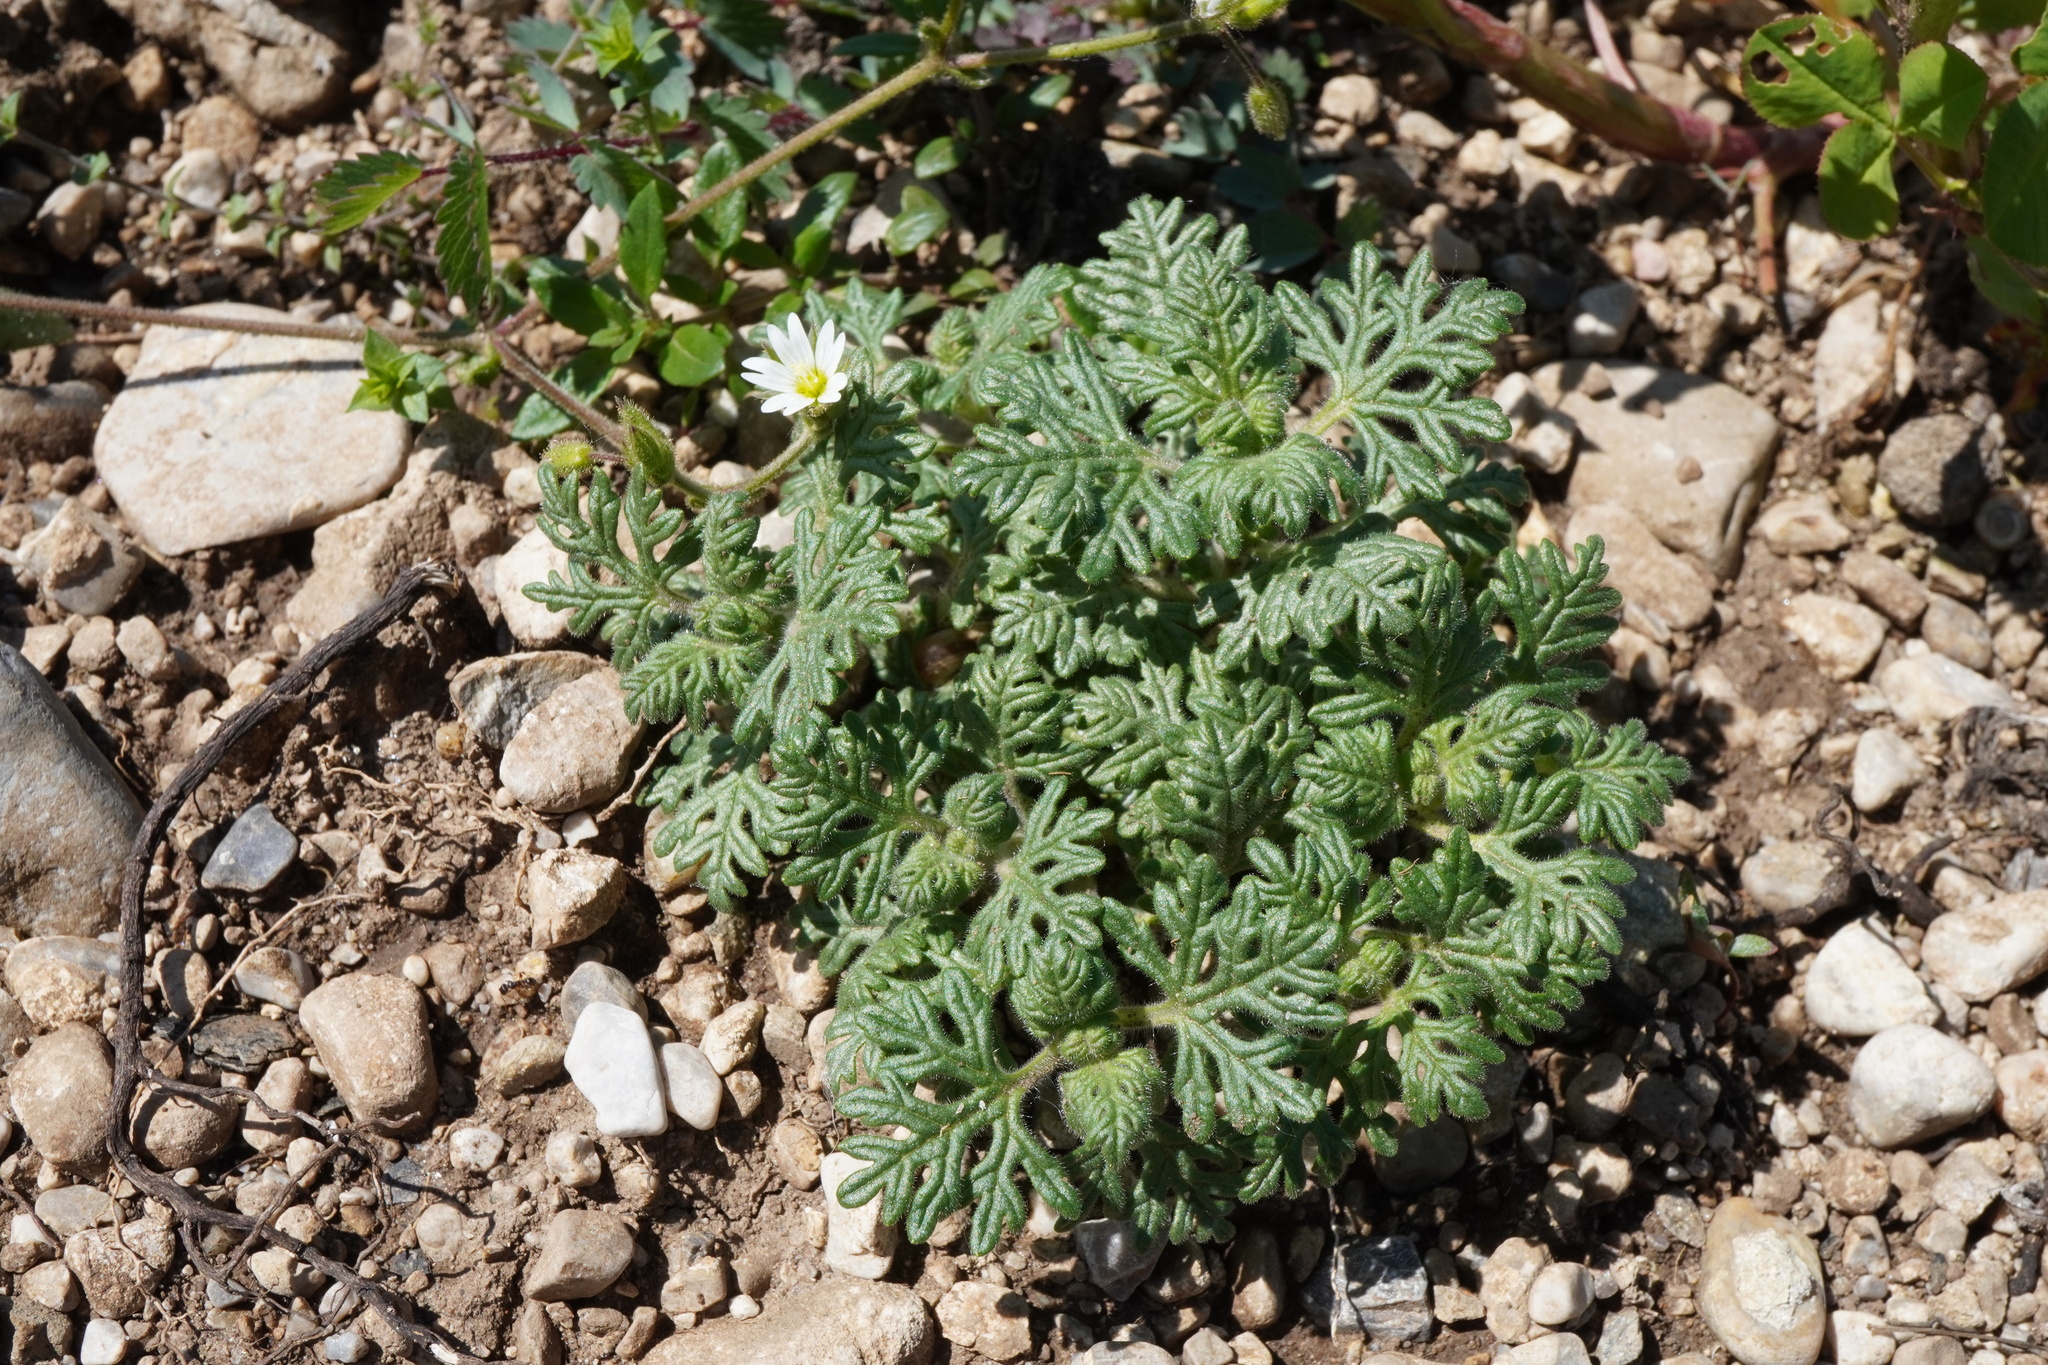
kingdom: Plantae
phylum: Tracheophyta
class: Magnoliopsida
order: Lamiales
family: Lamiaceae
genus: Teucrium
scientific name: Teucrium botrys
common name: Cut-leaved germander
